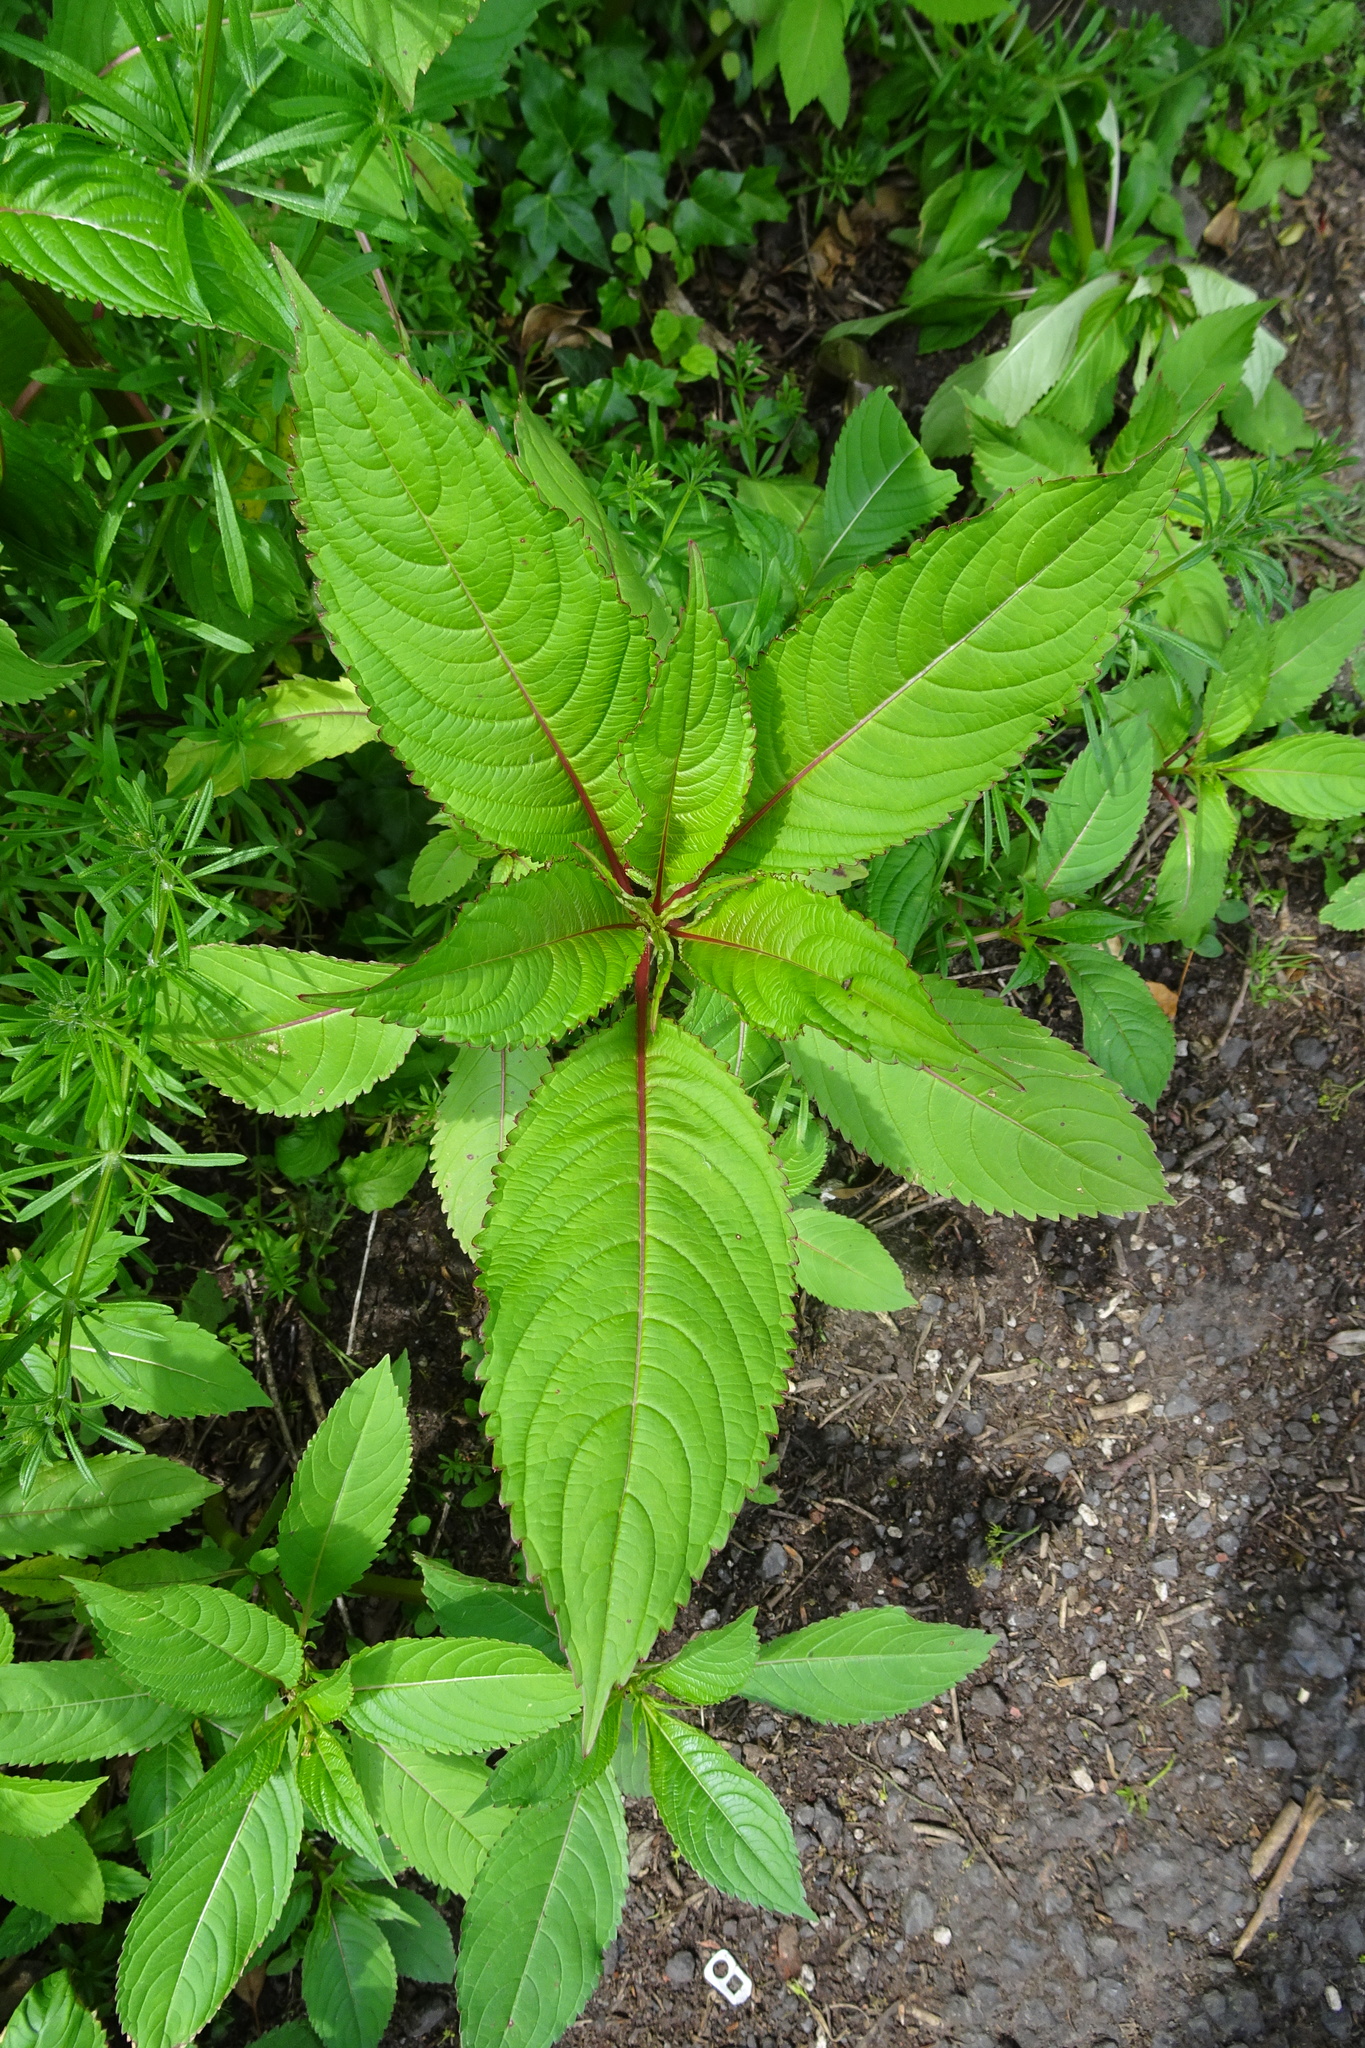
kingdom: Plantae
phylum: Tracheophyta
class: Magnoliopsida
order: Ericales
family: Balsaminaceae
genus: Impatiens
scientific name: Impatiens glandulifera
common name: Himalayan balsam
